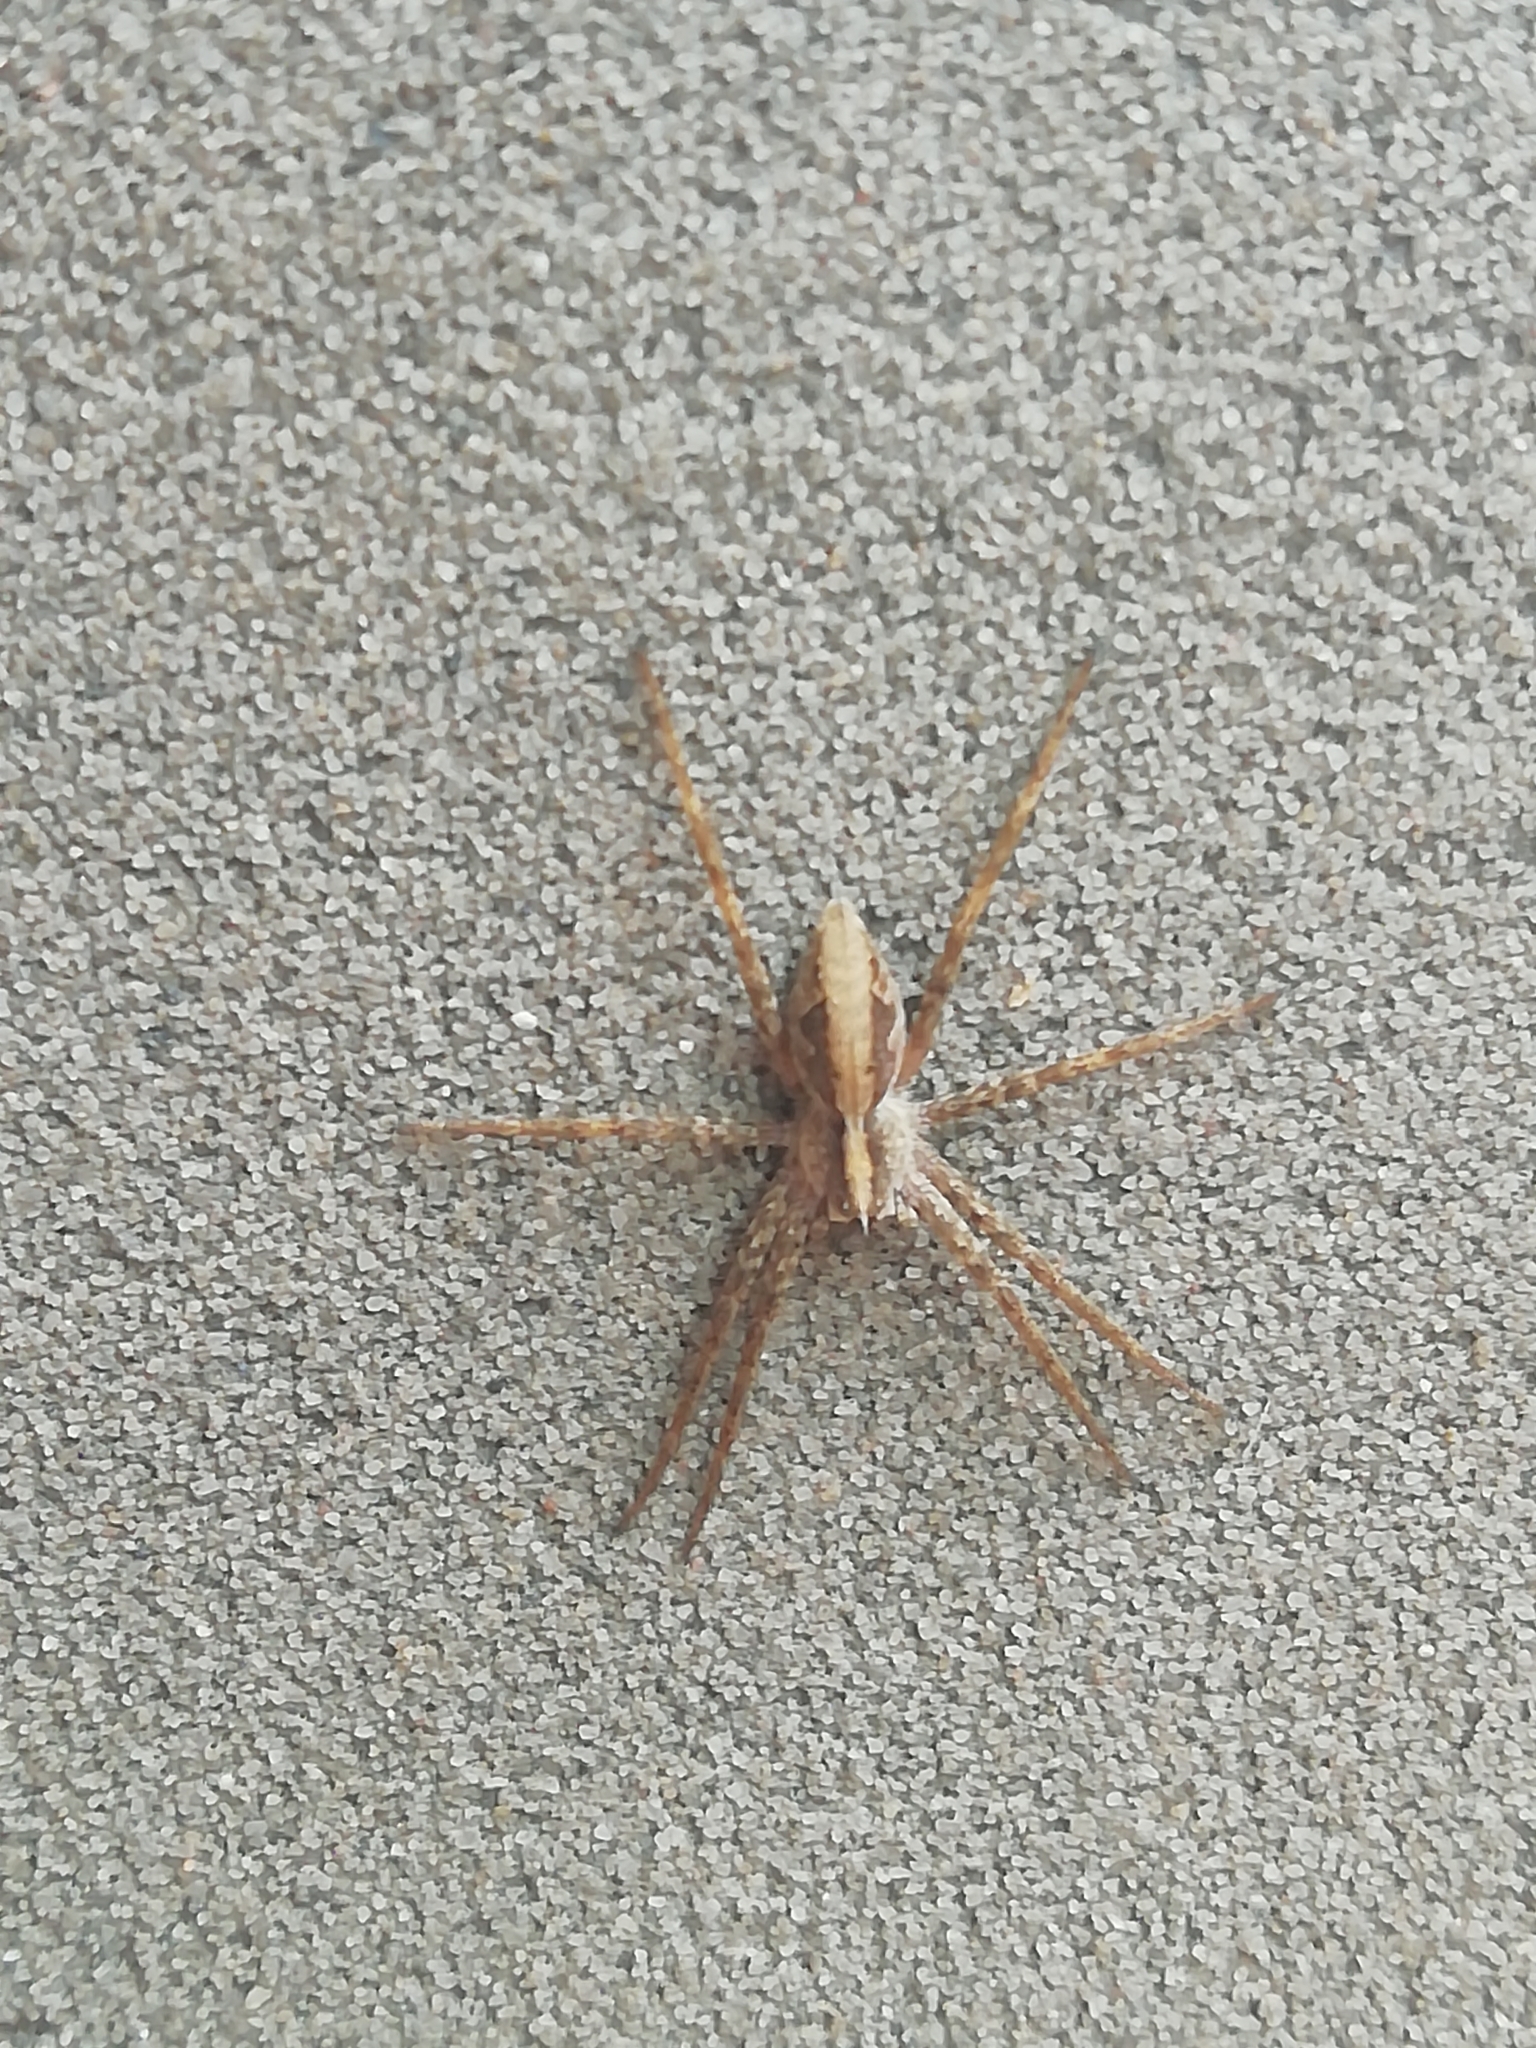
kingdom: Animalia
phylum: Arthropoda
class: Arachnida
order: Araneae
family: Pisauridae
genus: Pisaura
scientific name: Pisaura
